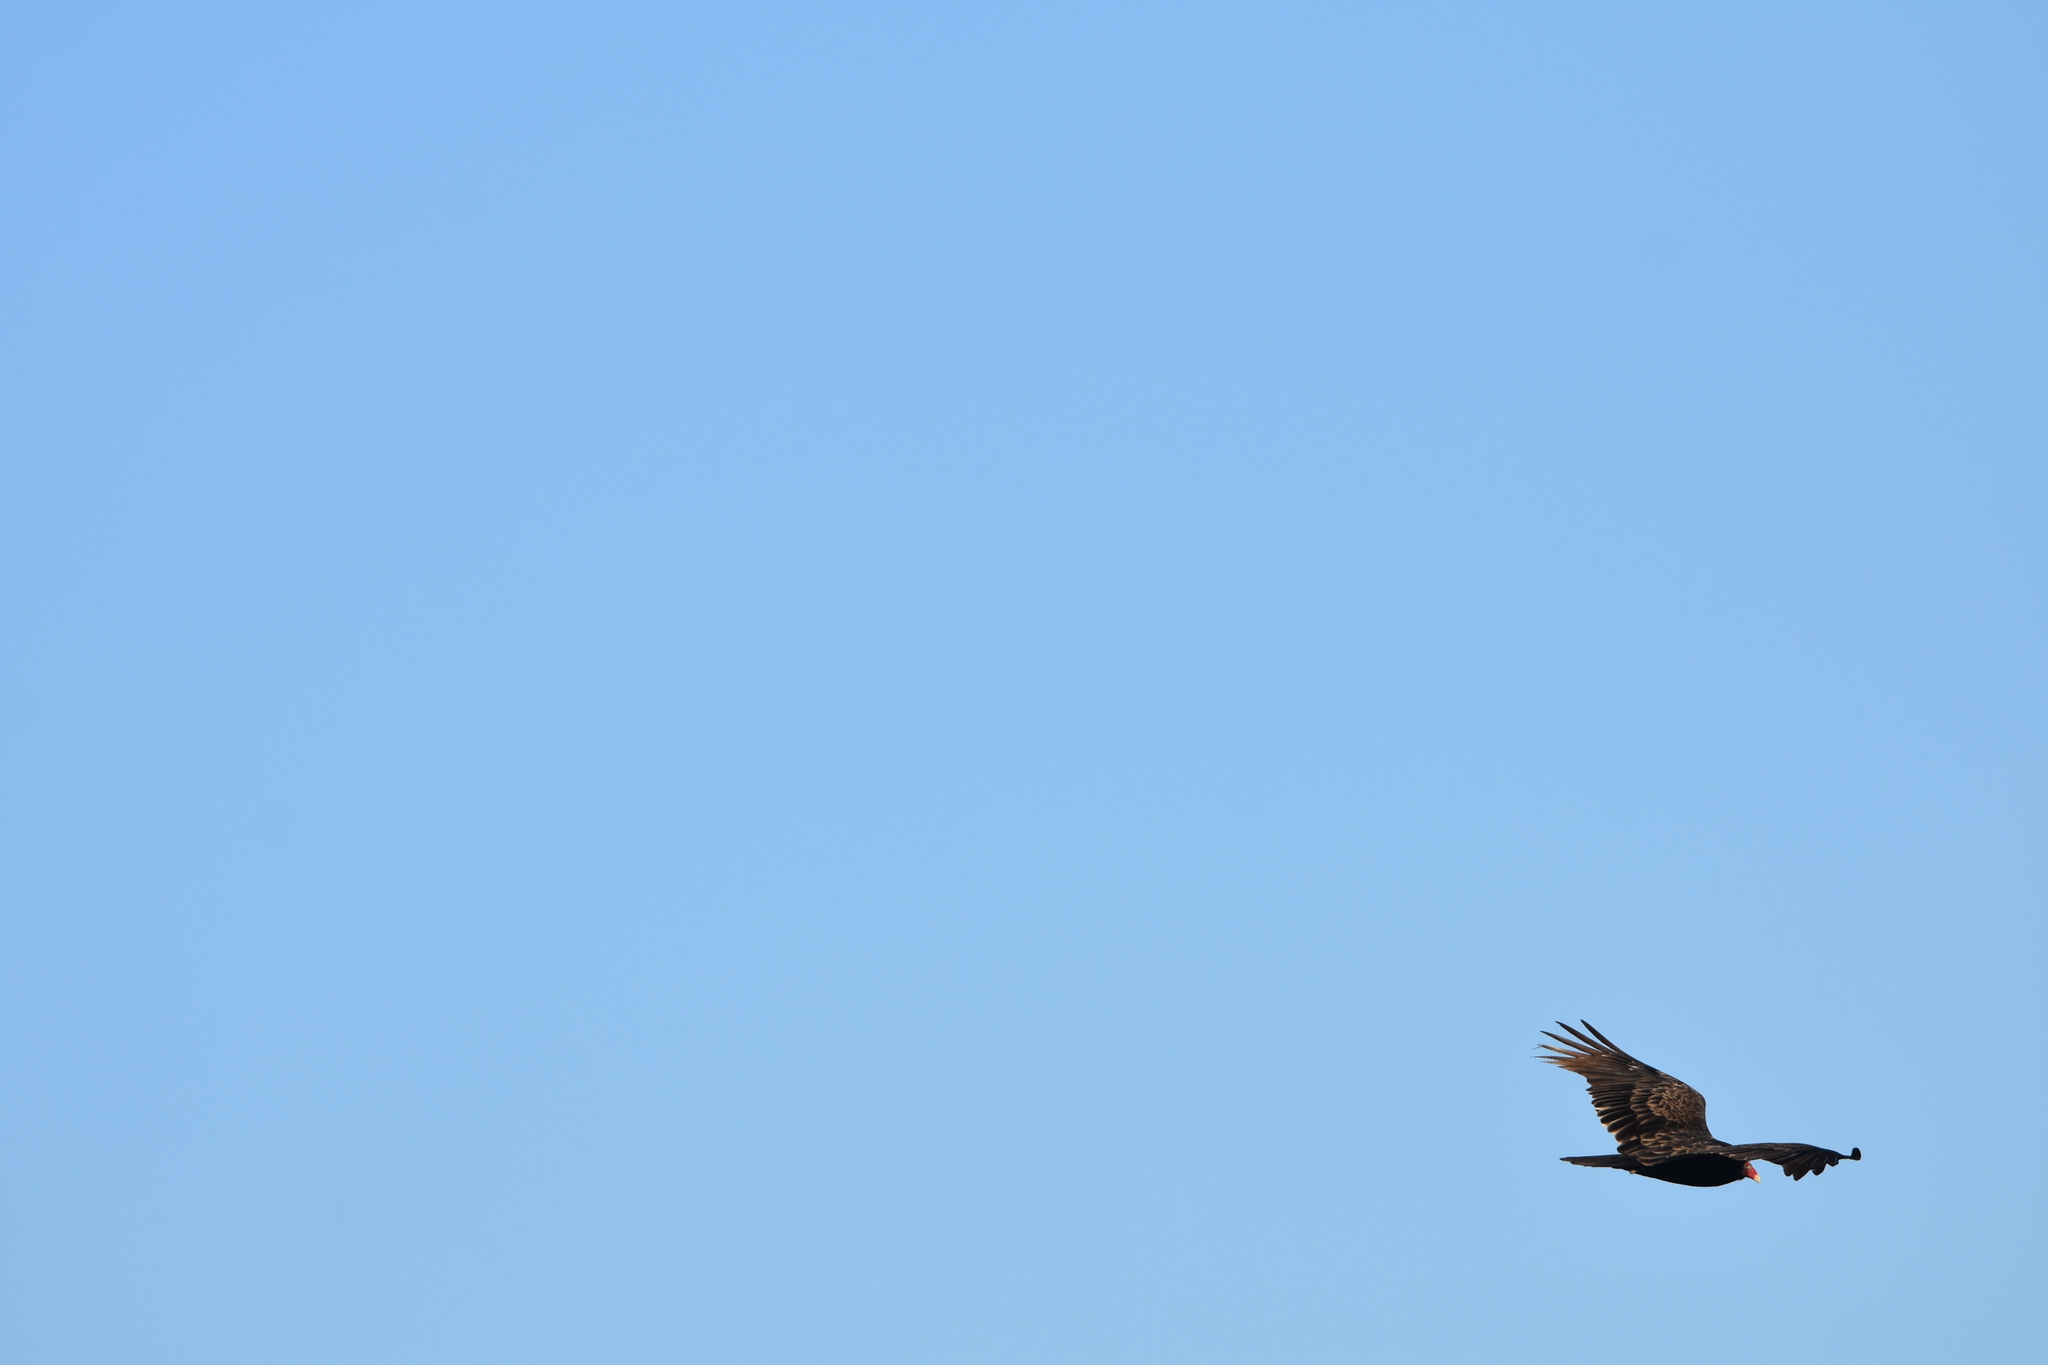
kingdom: Animalia
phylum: Chordata
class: Aves
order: Accipitriformes
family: Cathartidae
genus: Cathartes
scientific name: Cathartes aura
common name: Turkey vulture
